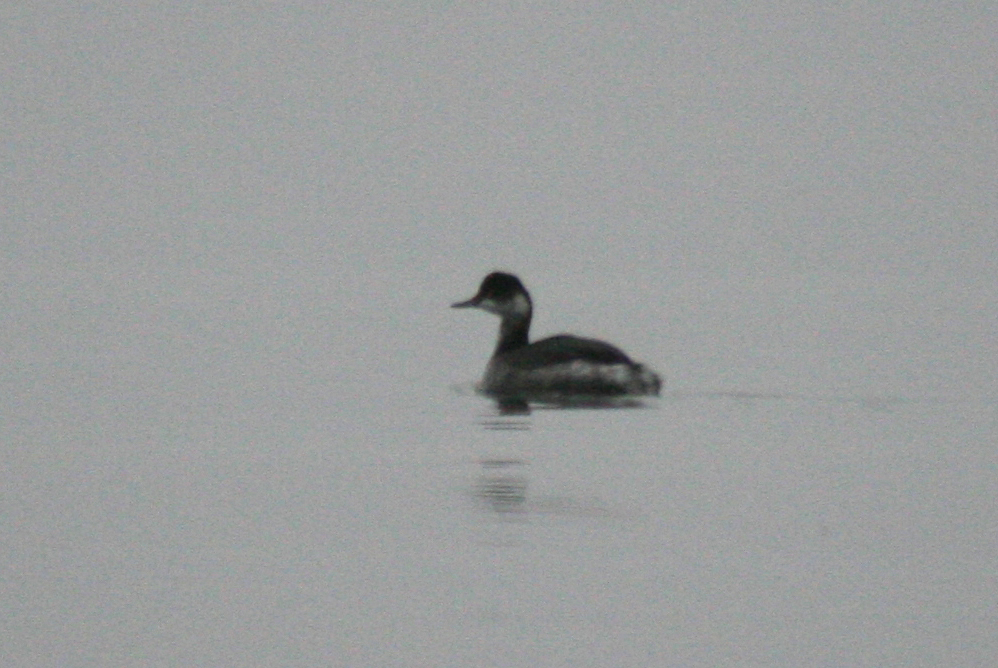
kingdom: Animalia
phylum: Chordata
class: Aves
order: Podicipediformes
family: Podicipedidae
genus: Podiceps
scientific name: Podiceps nigricollis
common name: Black-necked grebe
